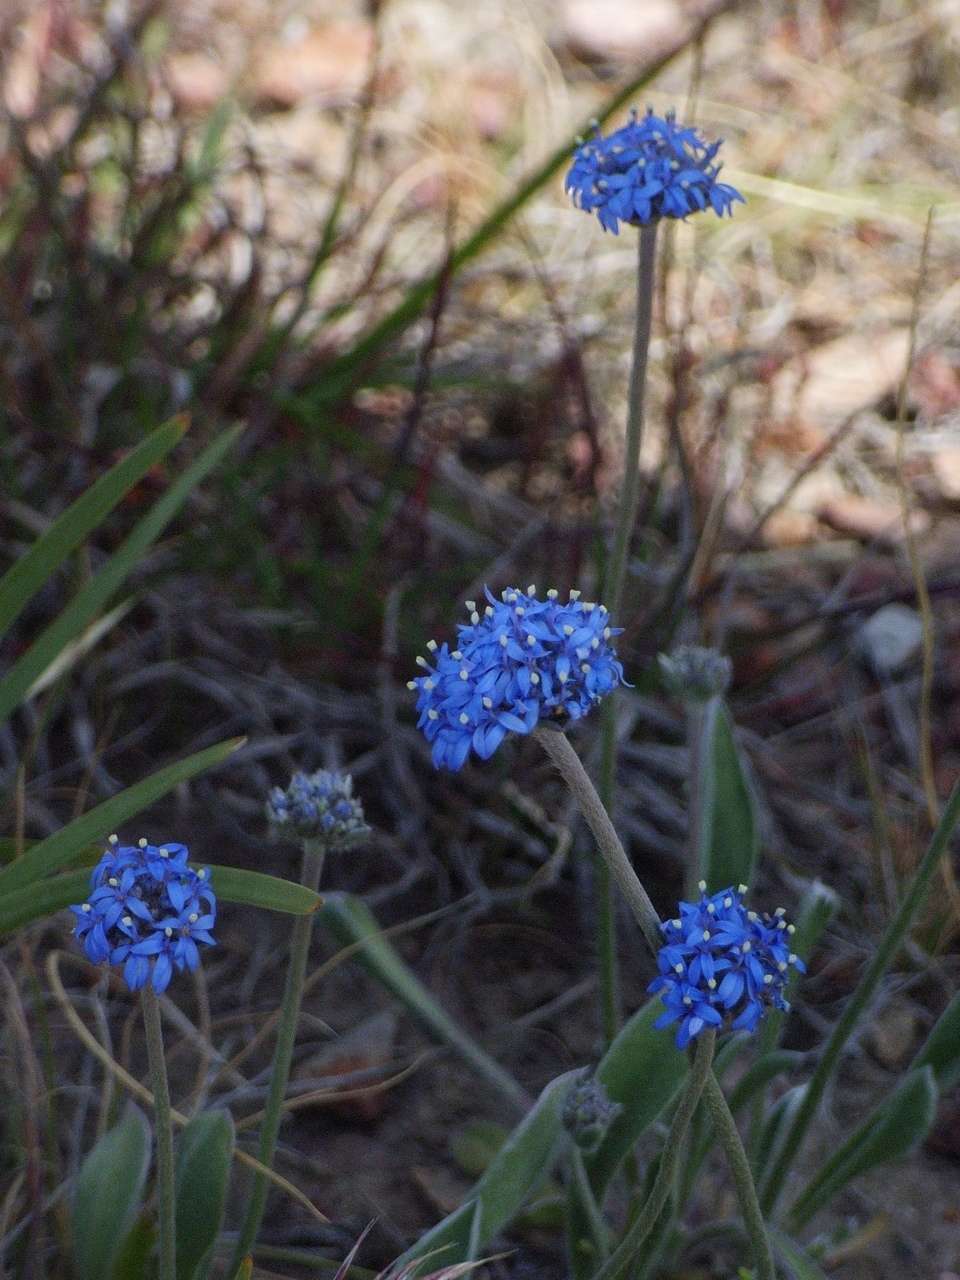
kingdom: Plantae
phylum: Tracheophyta
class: Magnoliopsida
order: Asterales
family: Goodeniaceae
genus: Brunonia
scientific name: Brunonia australis
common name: Blue pincushion
